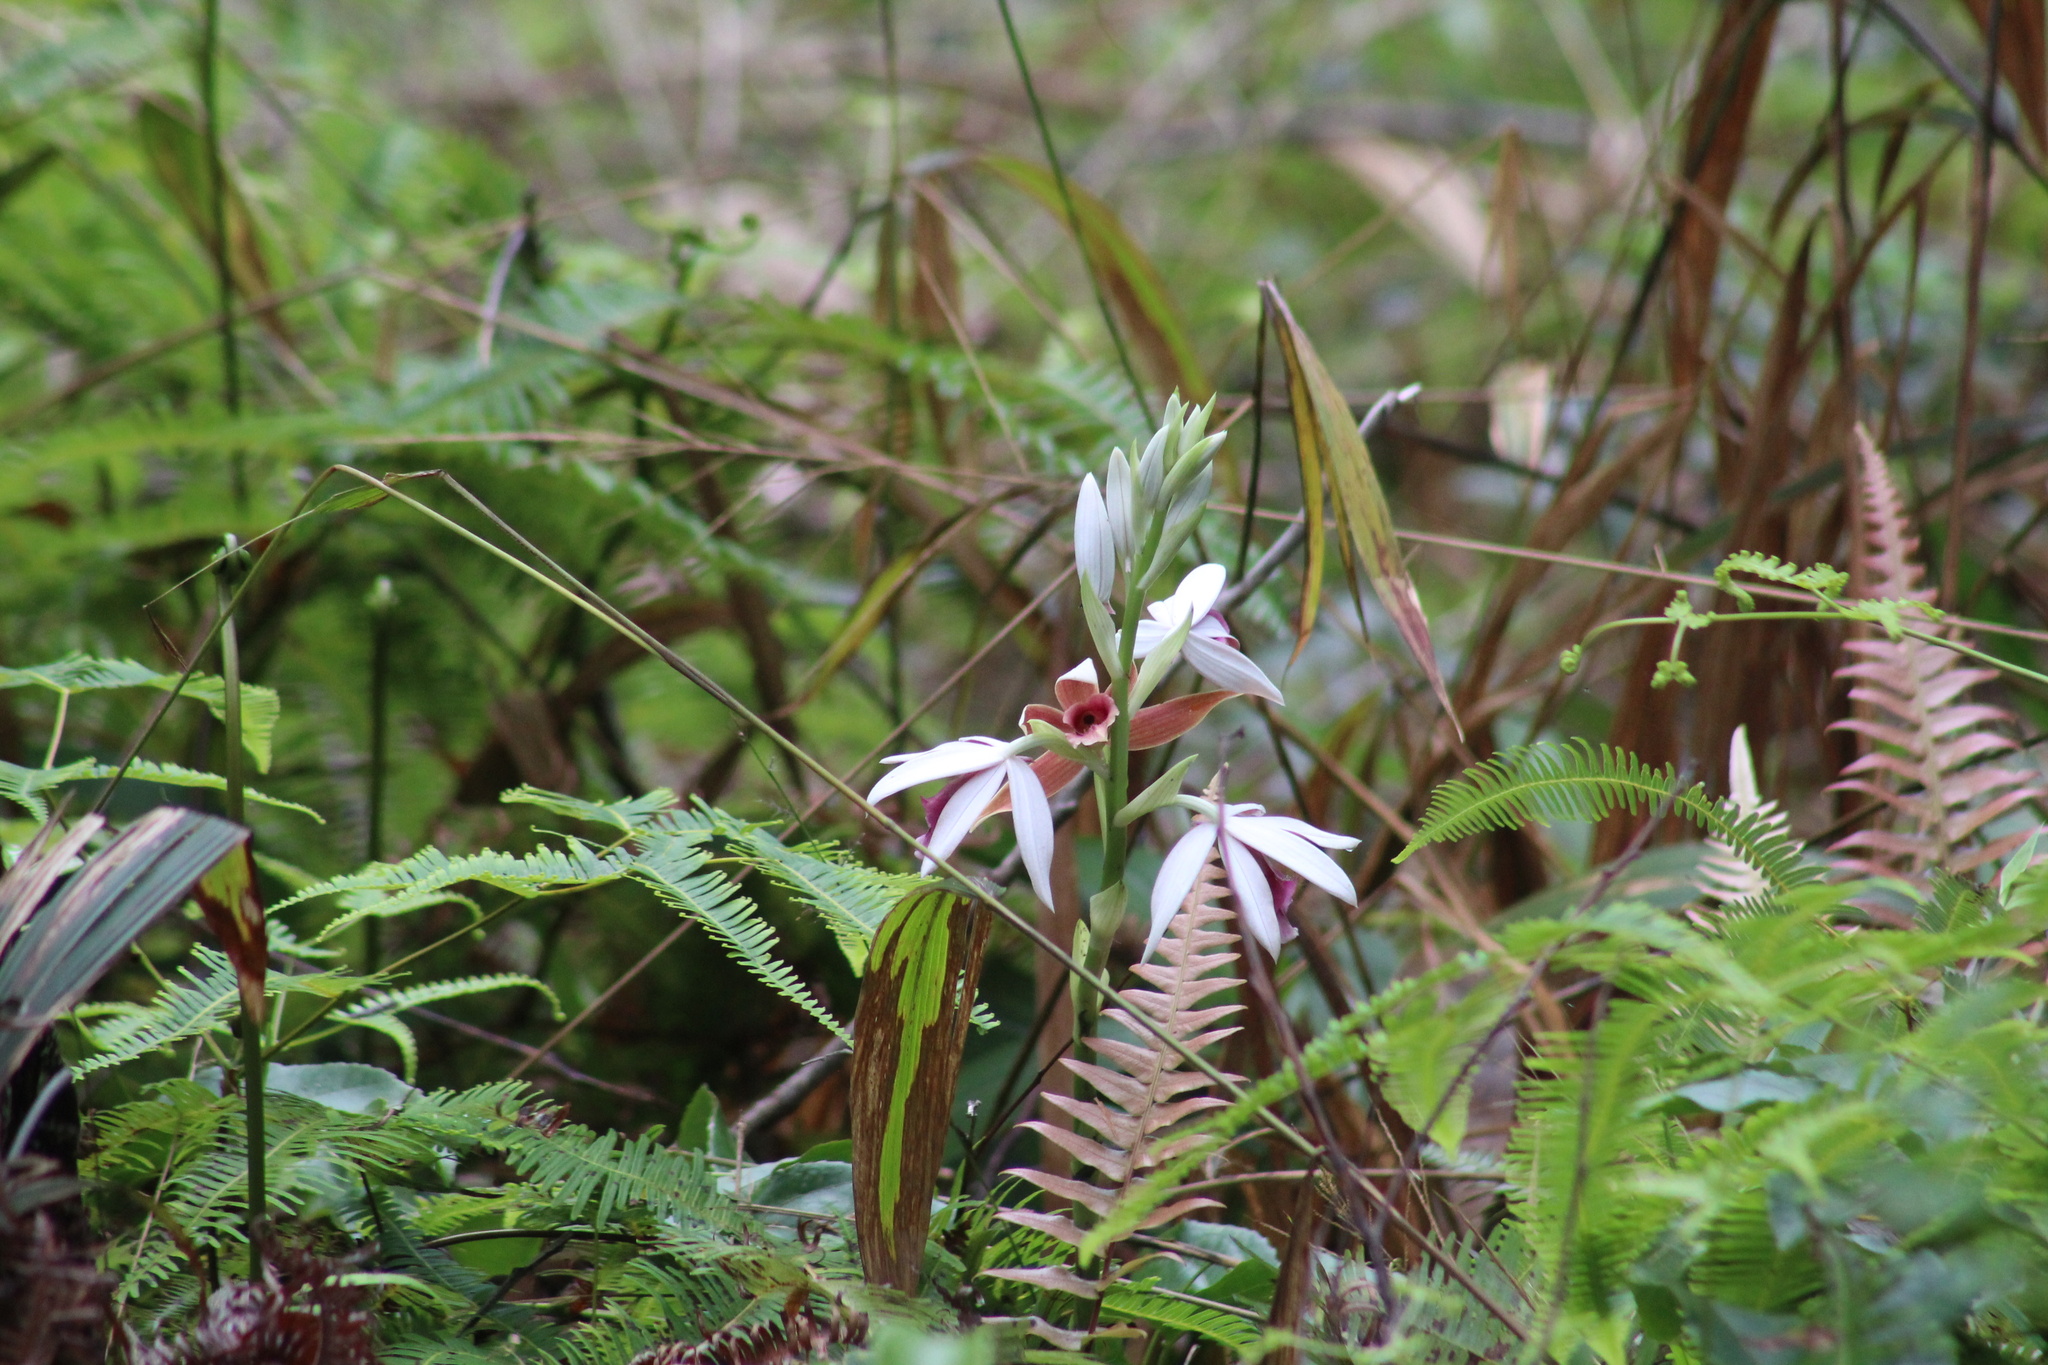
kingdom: Plantae
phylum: Tracheophyta
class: Liliopsida
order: Asparagales
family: Orchidaceae
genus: Calanthe
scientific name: Calanthe tankervilleae
